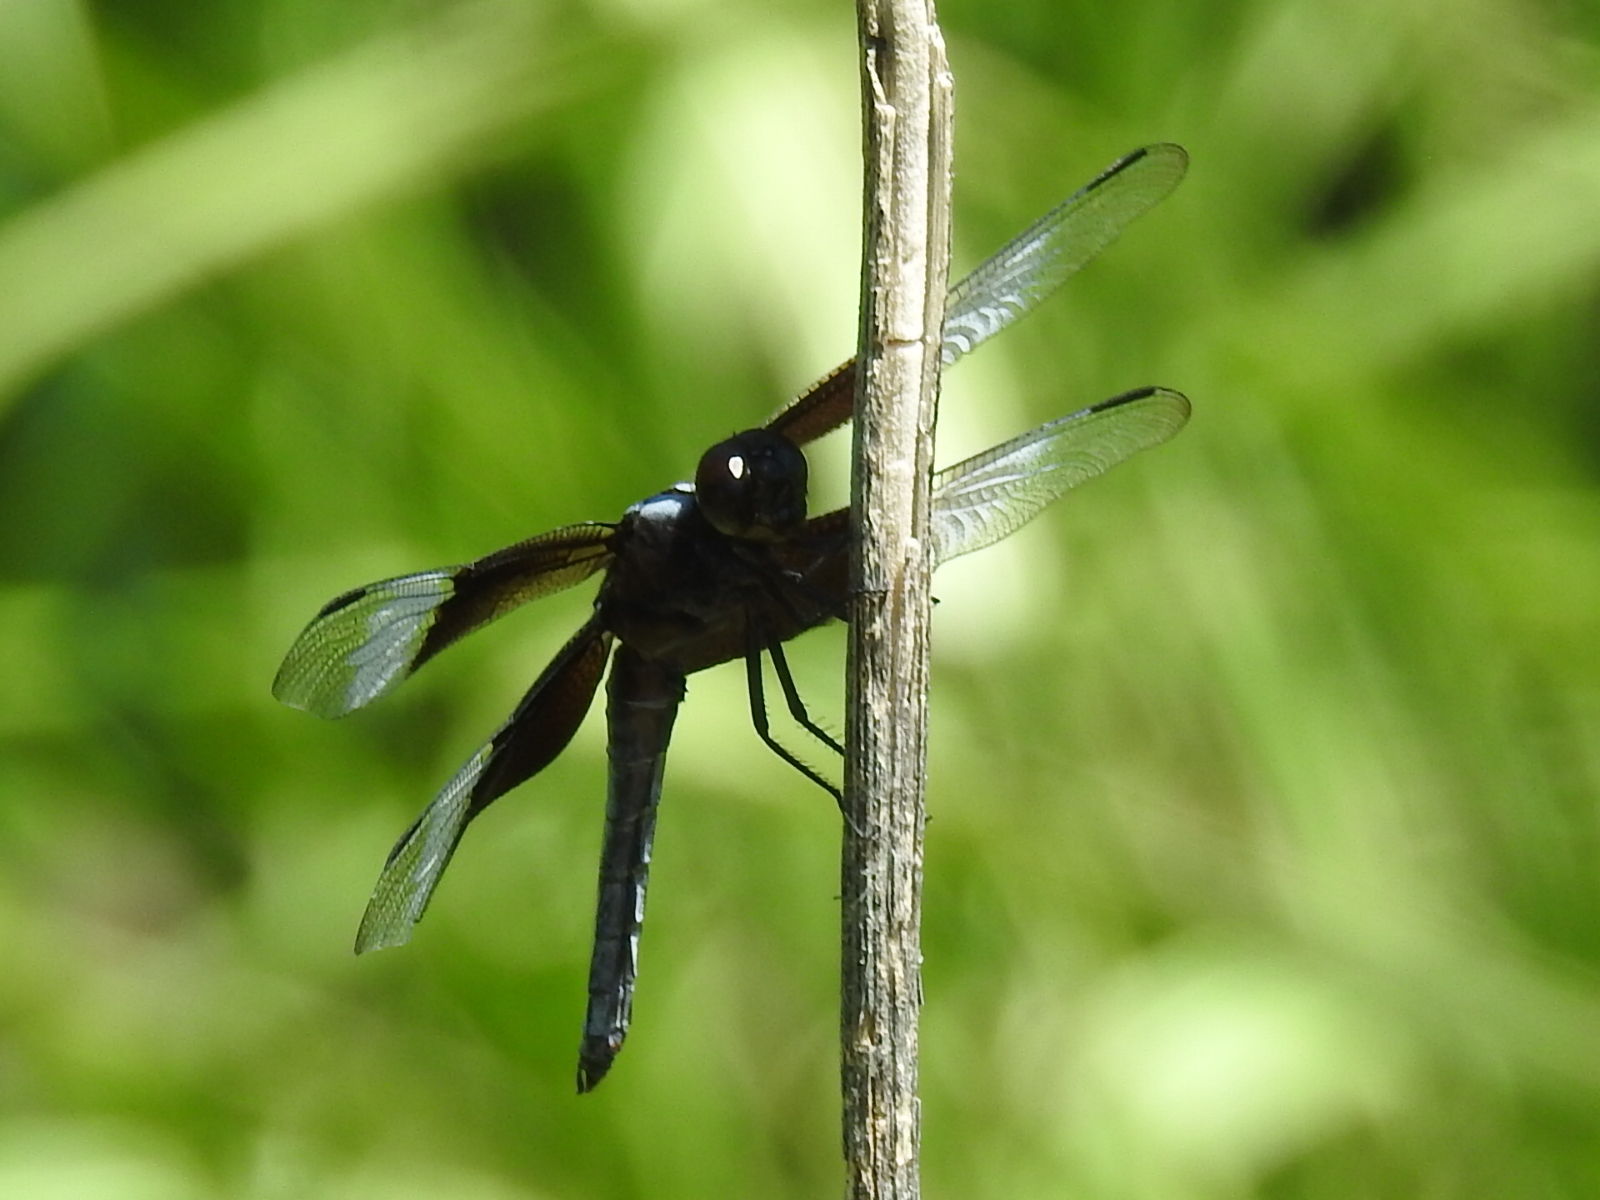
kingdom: Animalia
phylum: Arthropoda
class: Insecta
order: Odonata
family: Libellulidae
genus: Libellula
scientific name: Libellula luctuosa
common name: Widow skimmer
